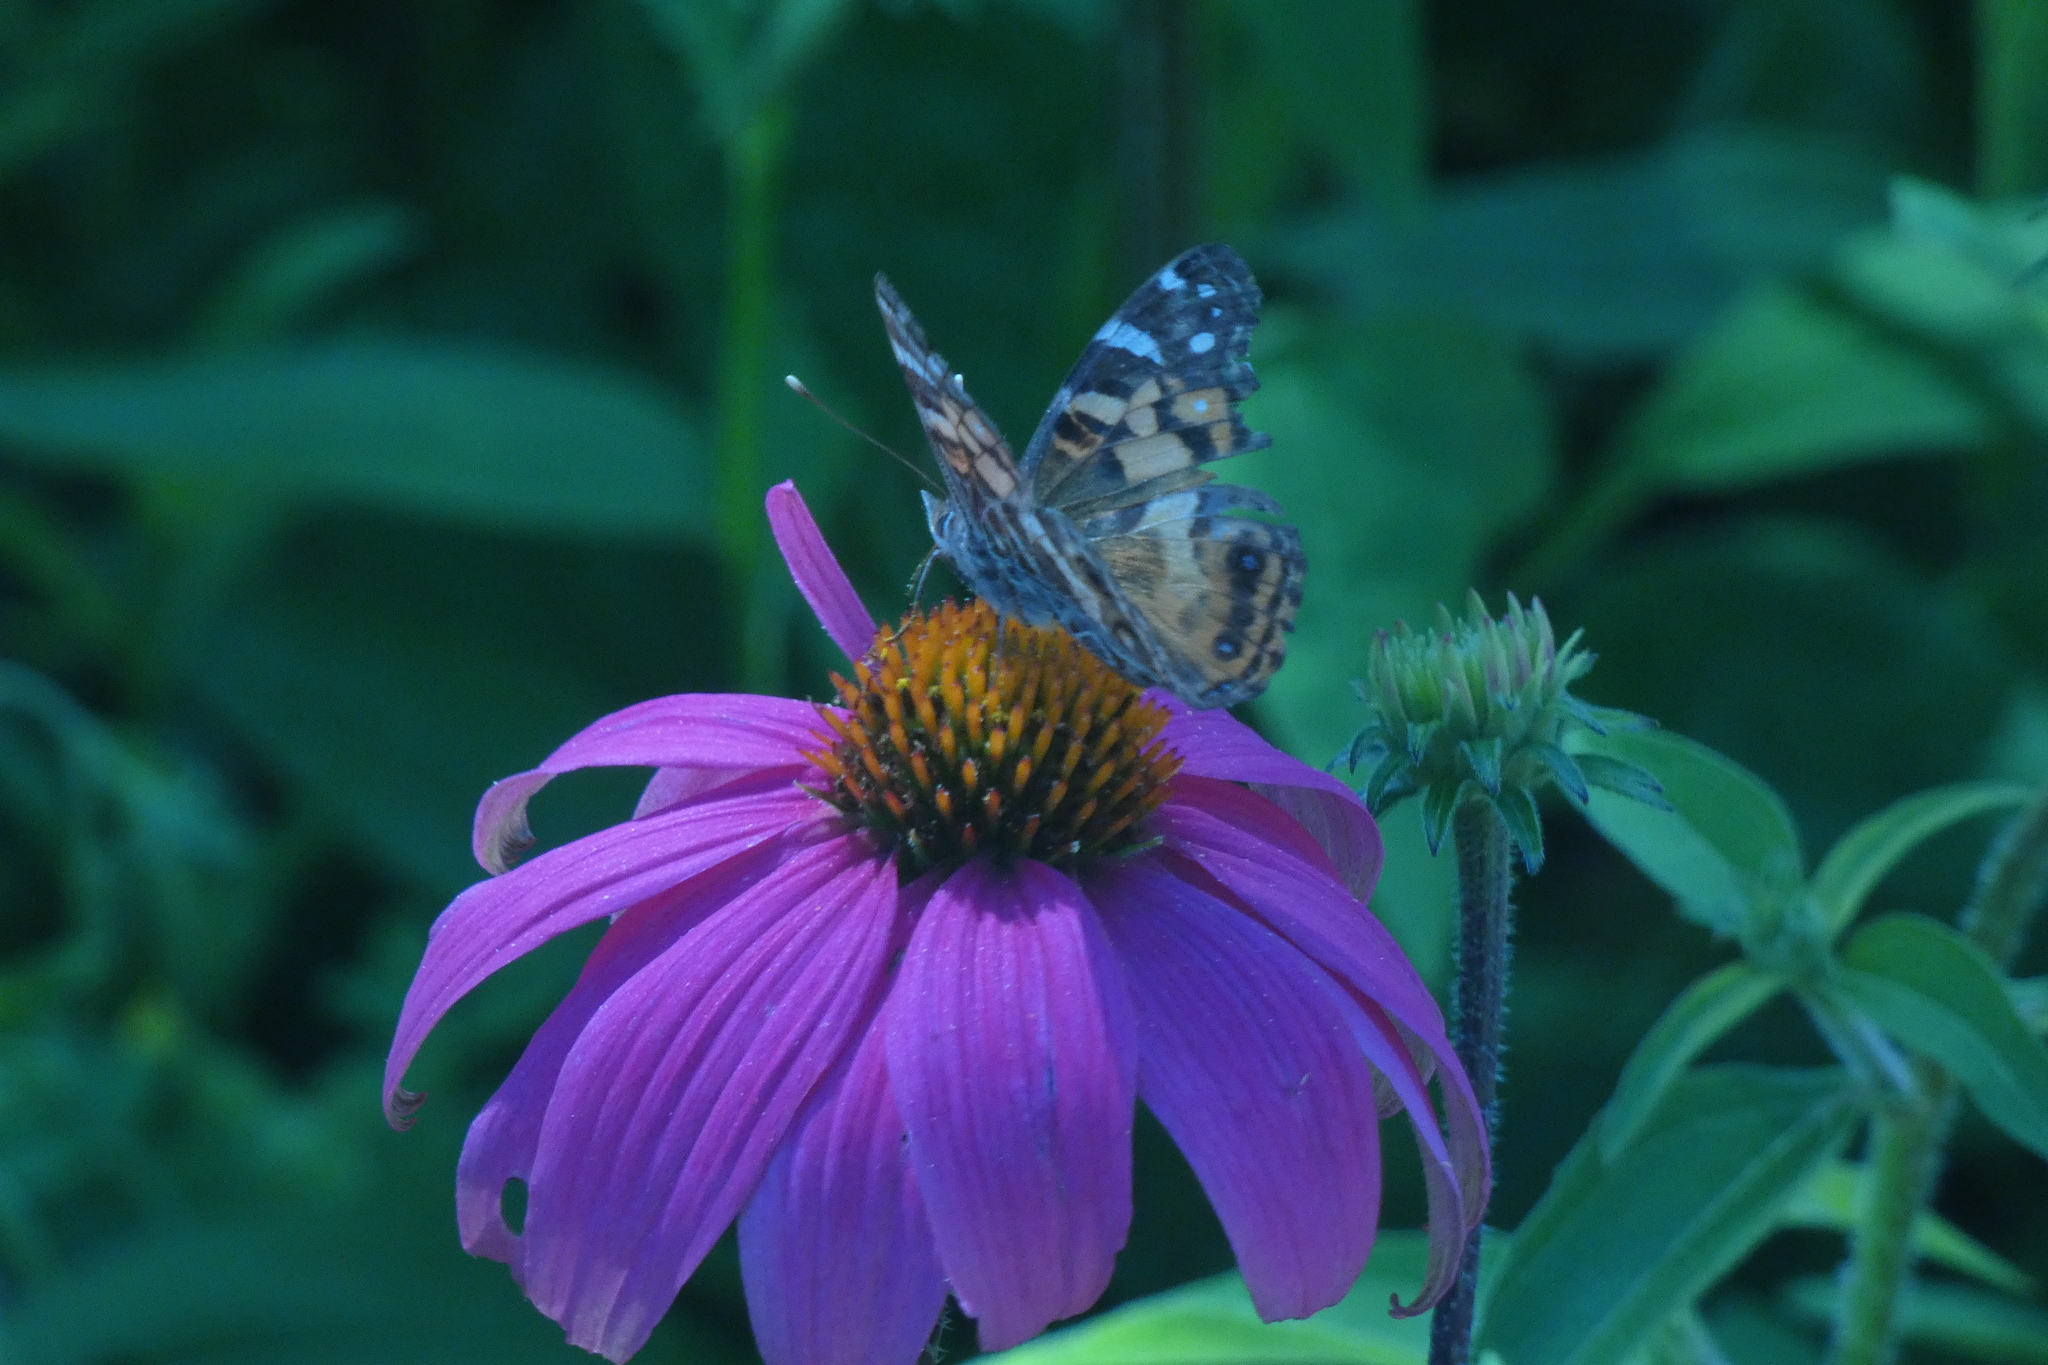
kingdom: Animalia
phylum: Arthropoda
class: Insecta
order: Lepidoptera
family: Nymphalidae
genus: Vanessa
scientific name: Vanessa virginiensis
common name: American lady
